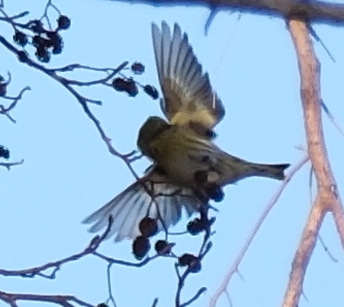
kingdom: Animalia
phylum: Chordata
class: Aves
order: Passeriformes
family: Fringillidae
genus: Spinus
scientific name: Spinus spinus
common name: Eurasian siskin
